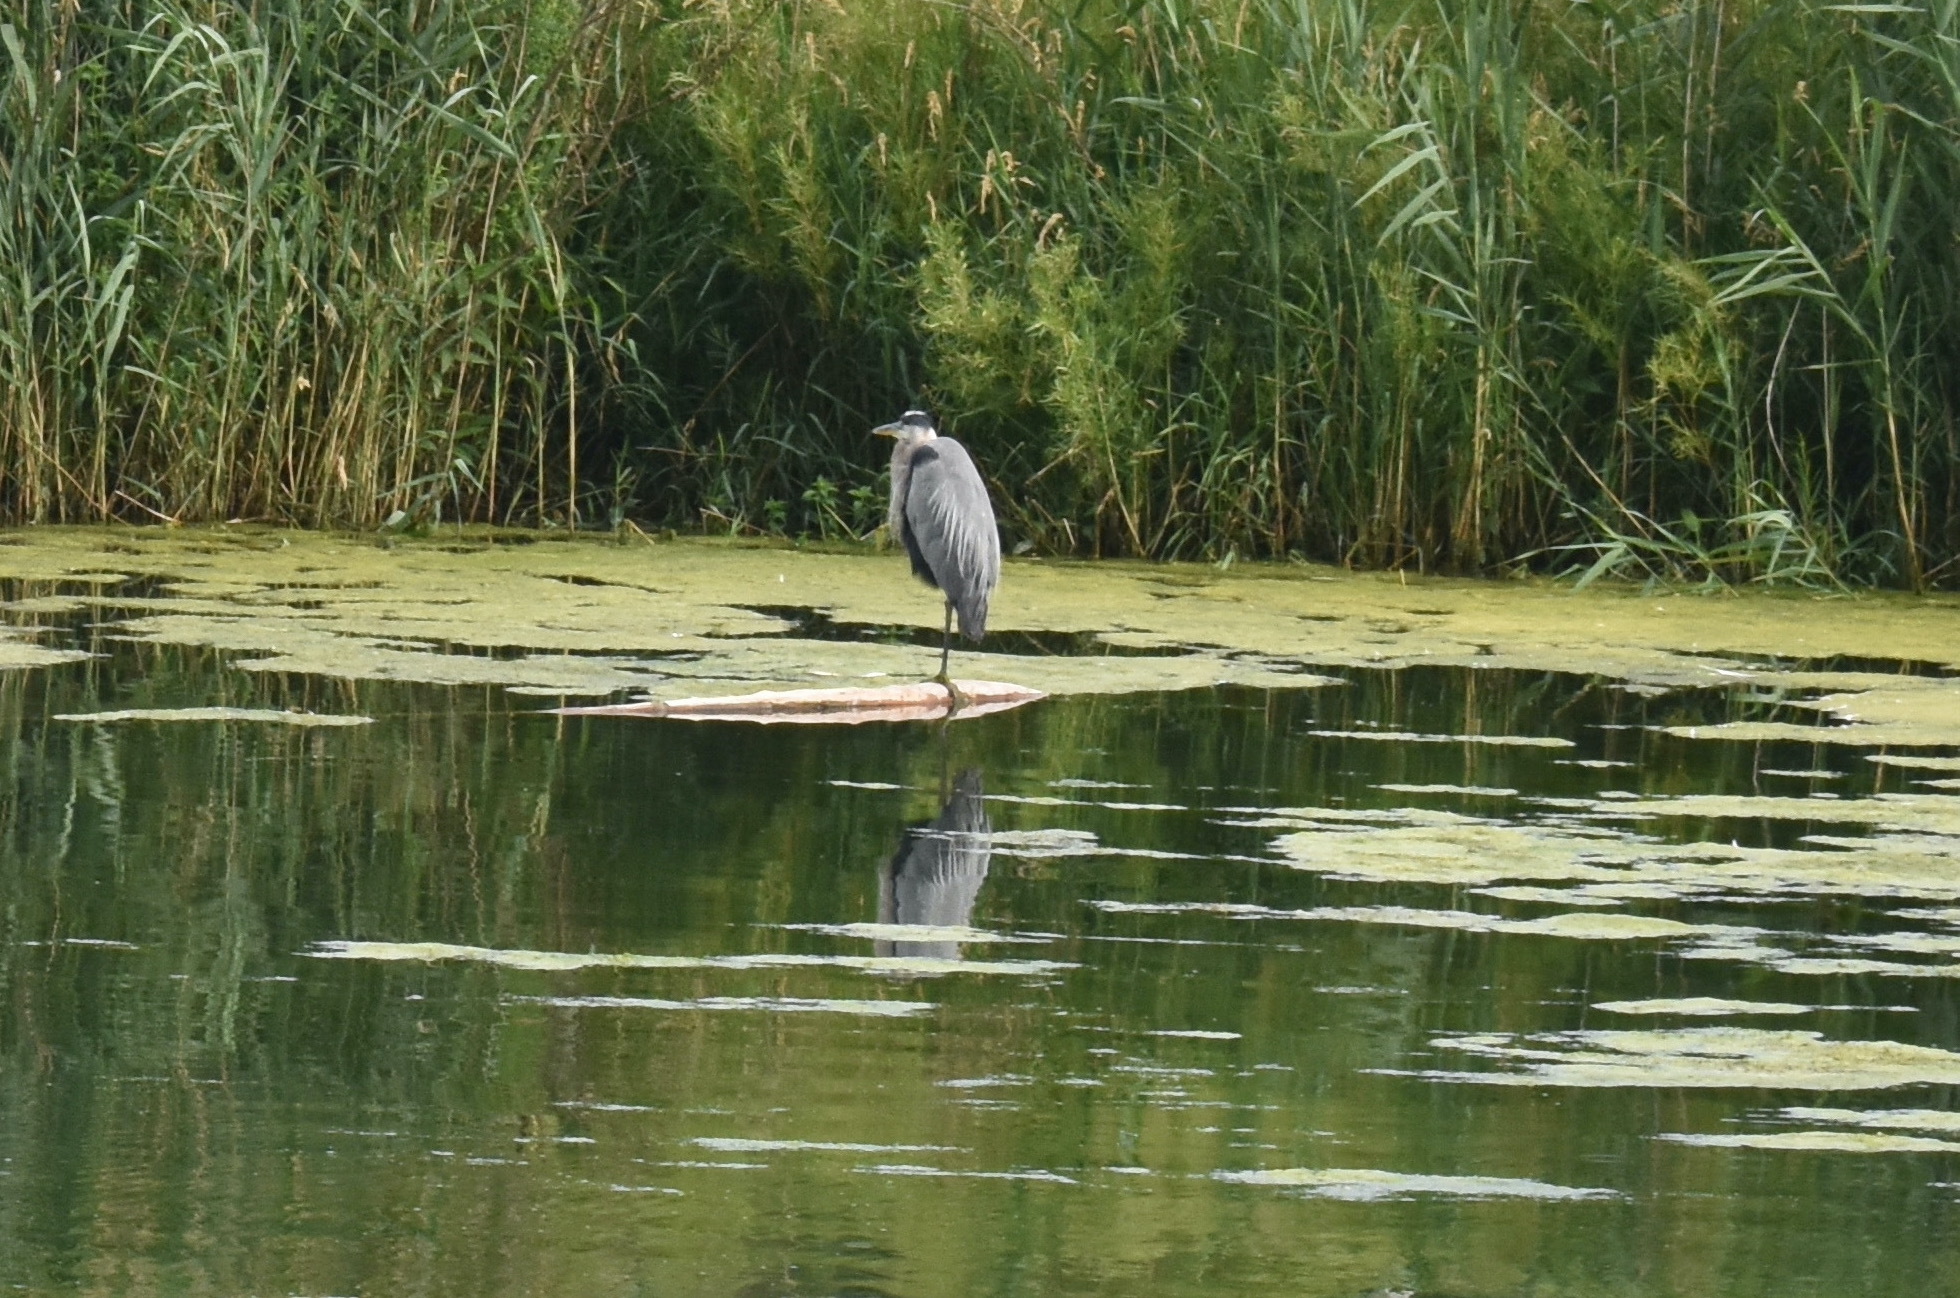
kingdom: Animalia
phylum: Chordata
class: Aves
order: Pelecaniformes
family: Ardeidae
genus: Ardea
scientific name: Ardea herodias
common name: Great blue heron
